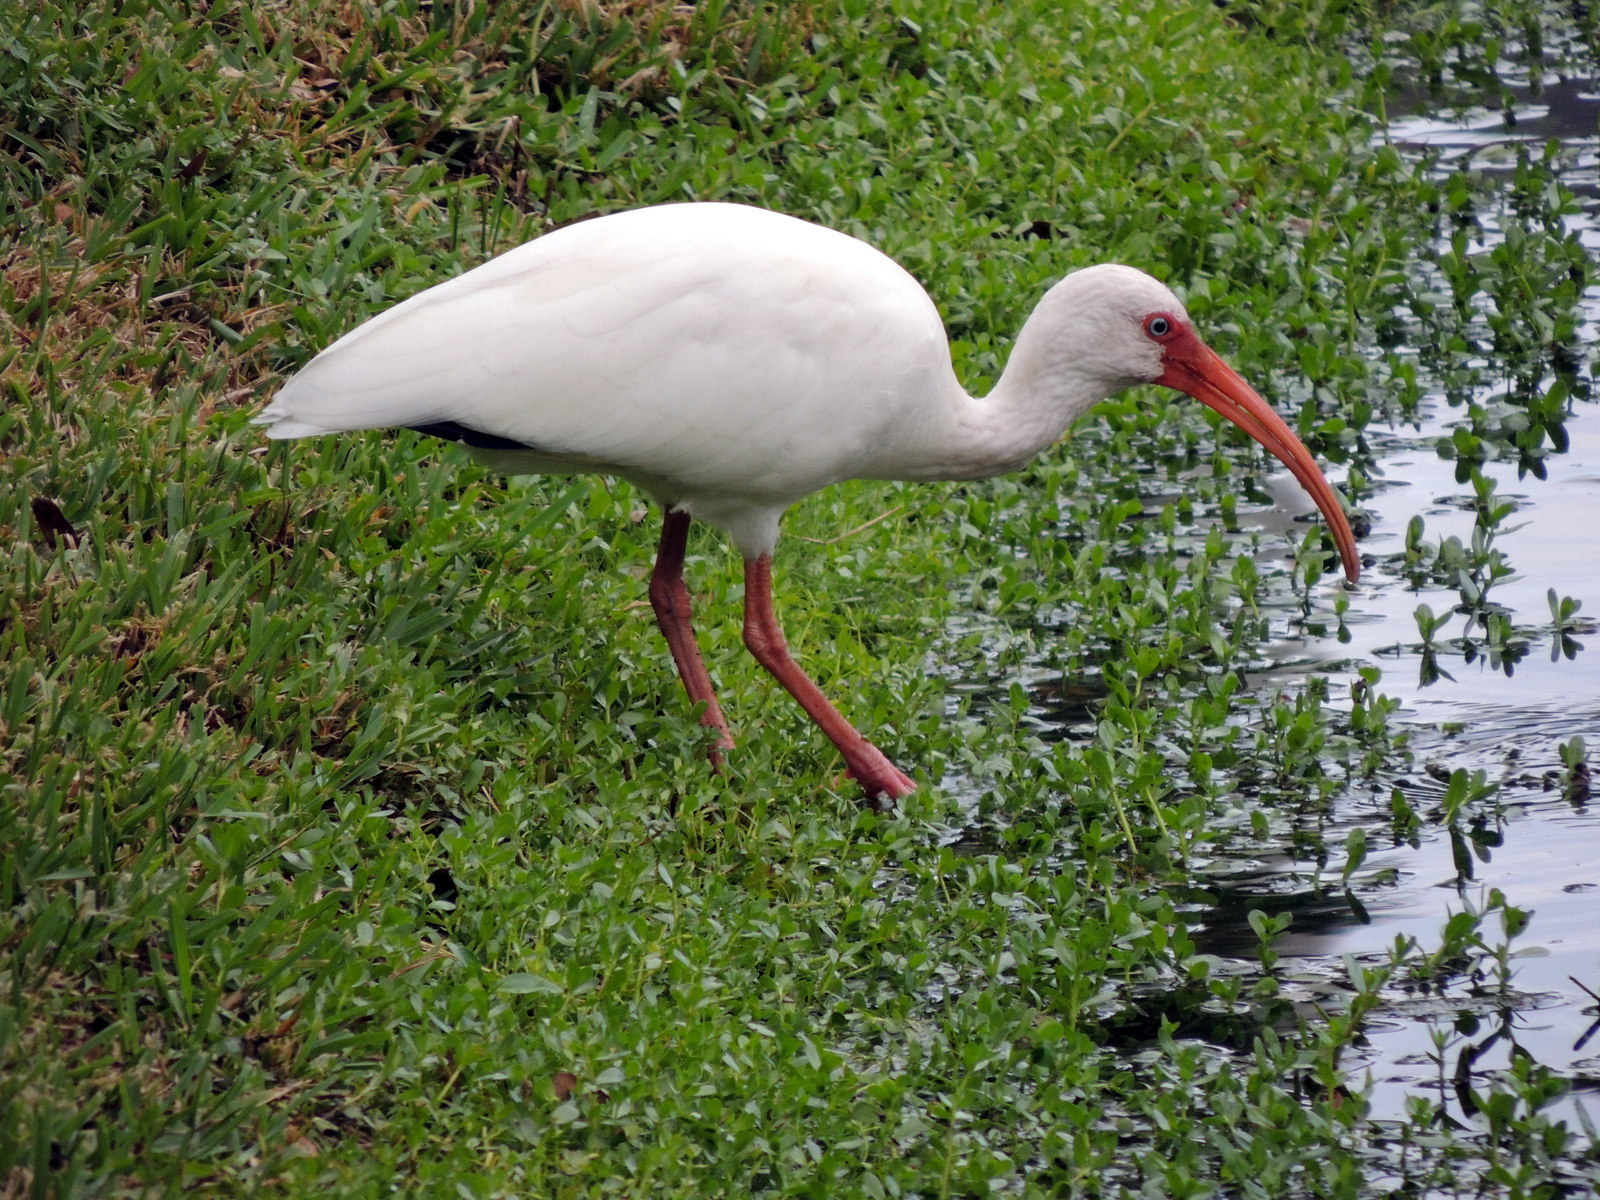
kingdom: Animalia
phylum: Chordata
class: Aves
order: Pelecaniformes
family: Threskiornithidae
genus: Eudocimus
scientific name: Eudocimus albus
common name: White ibis
